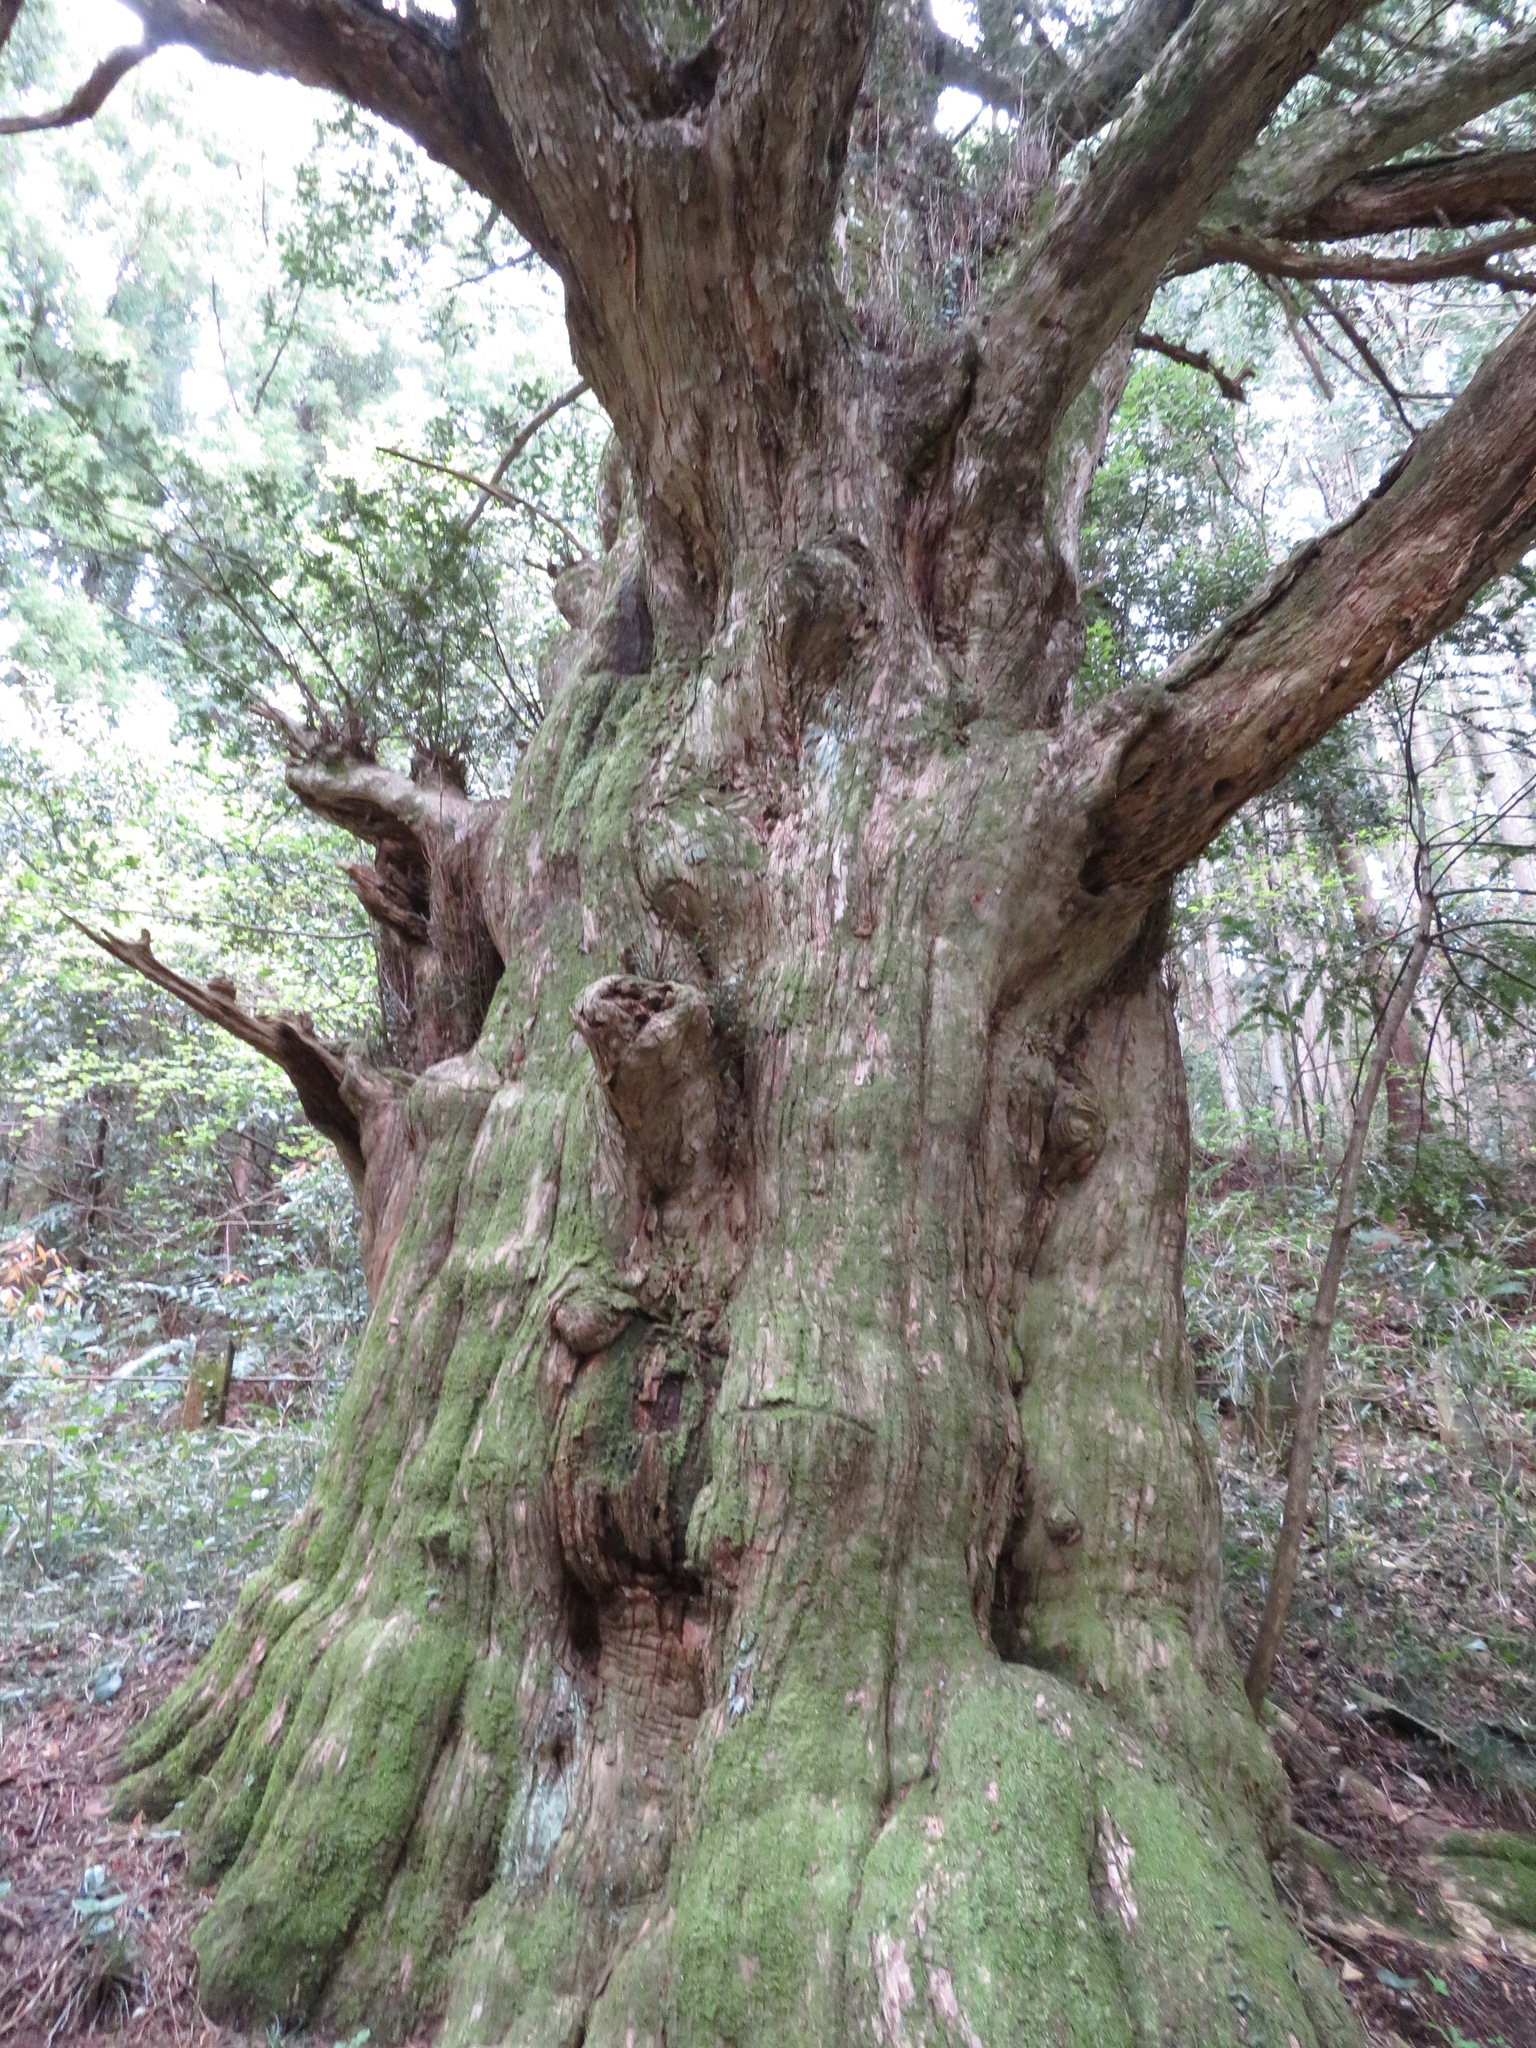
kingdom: Plantae
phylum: Tracheophyta
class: Pinopsida
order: Pinales
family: Taxaceae
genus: Torreya
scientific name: Torreya nucifera
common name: Japanese nutmeg tree
